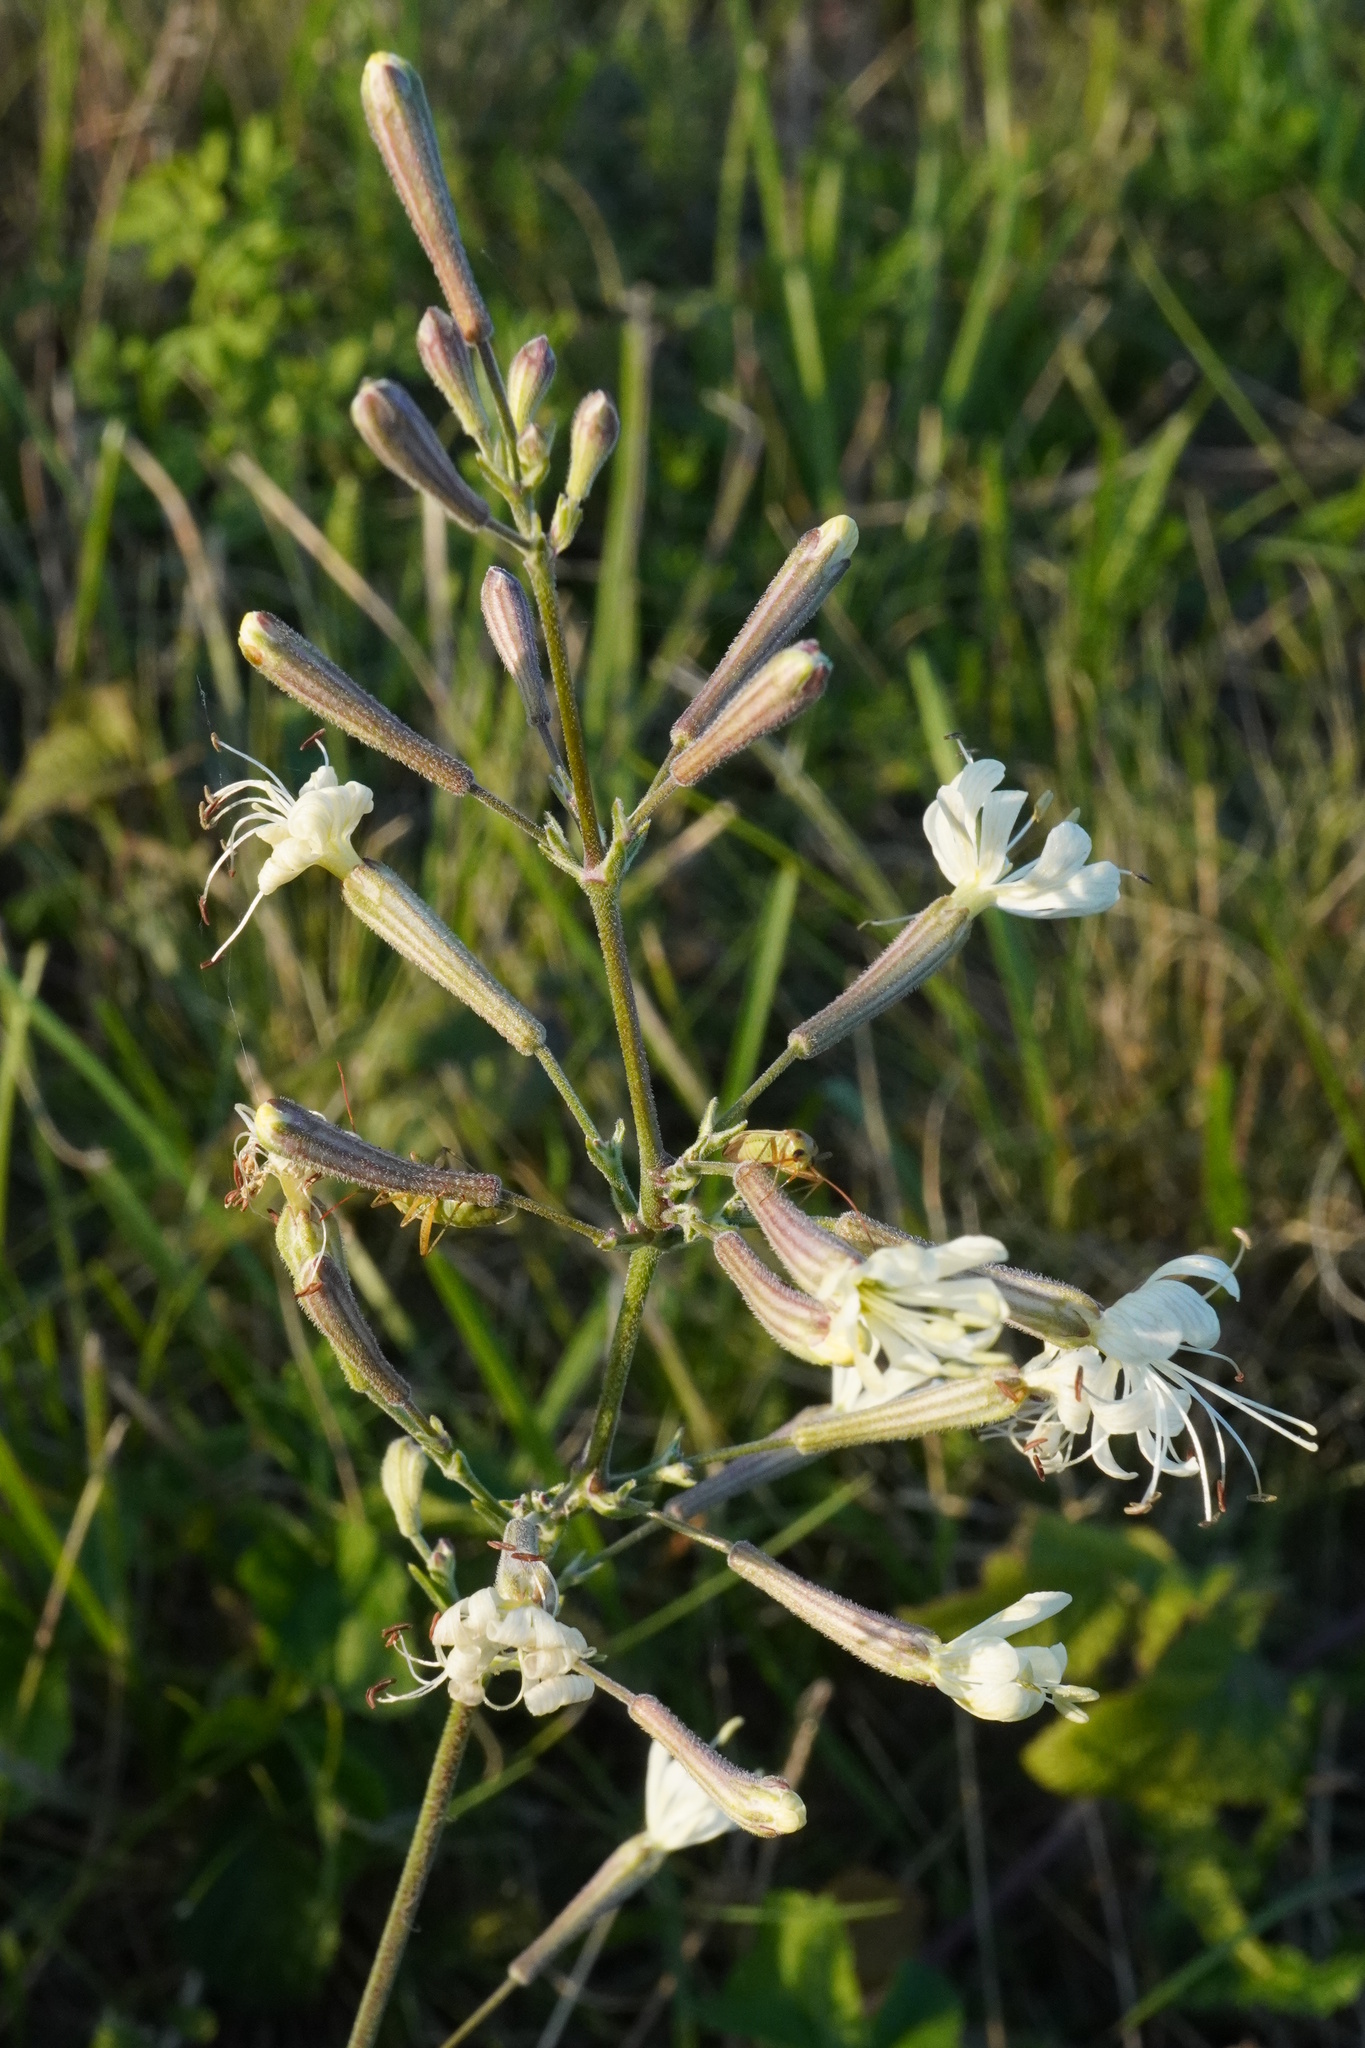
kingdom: Plantae
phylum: Tracheophyta
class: Magnoliopsida
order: Caryophyllales
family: Caryophyllaceae
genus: Silene
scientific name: Silene multiflora
